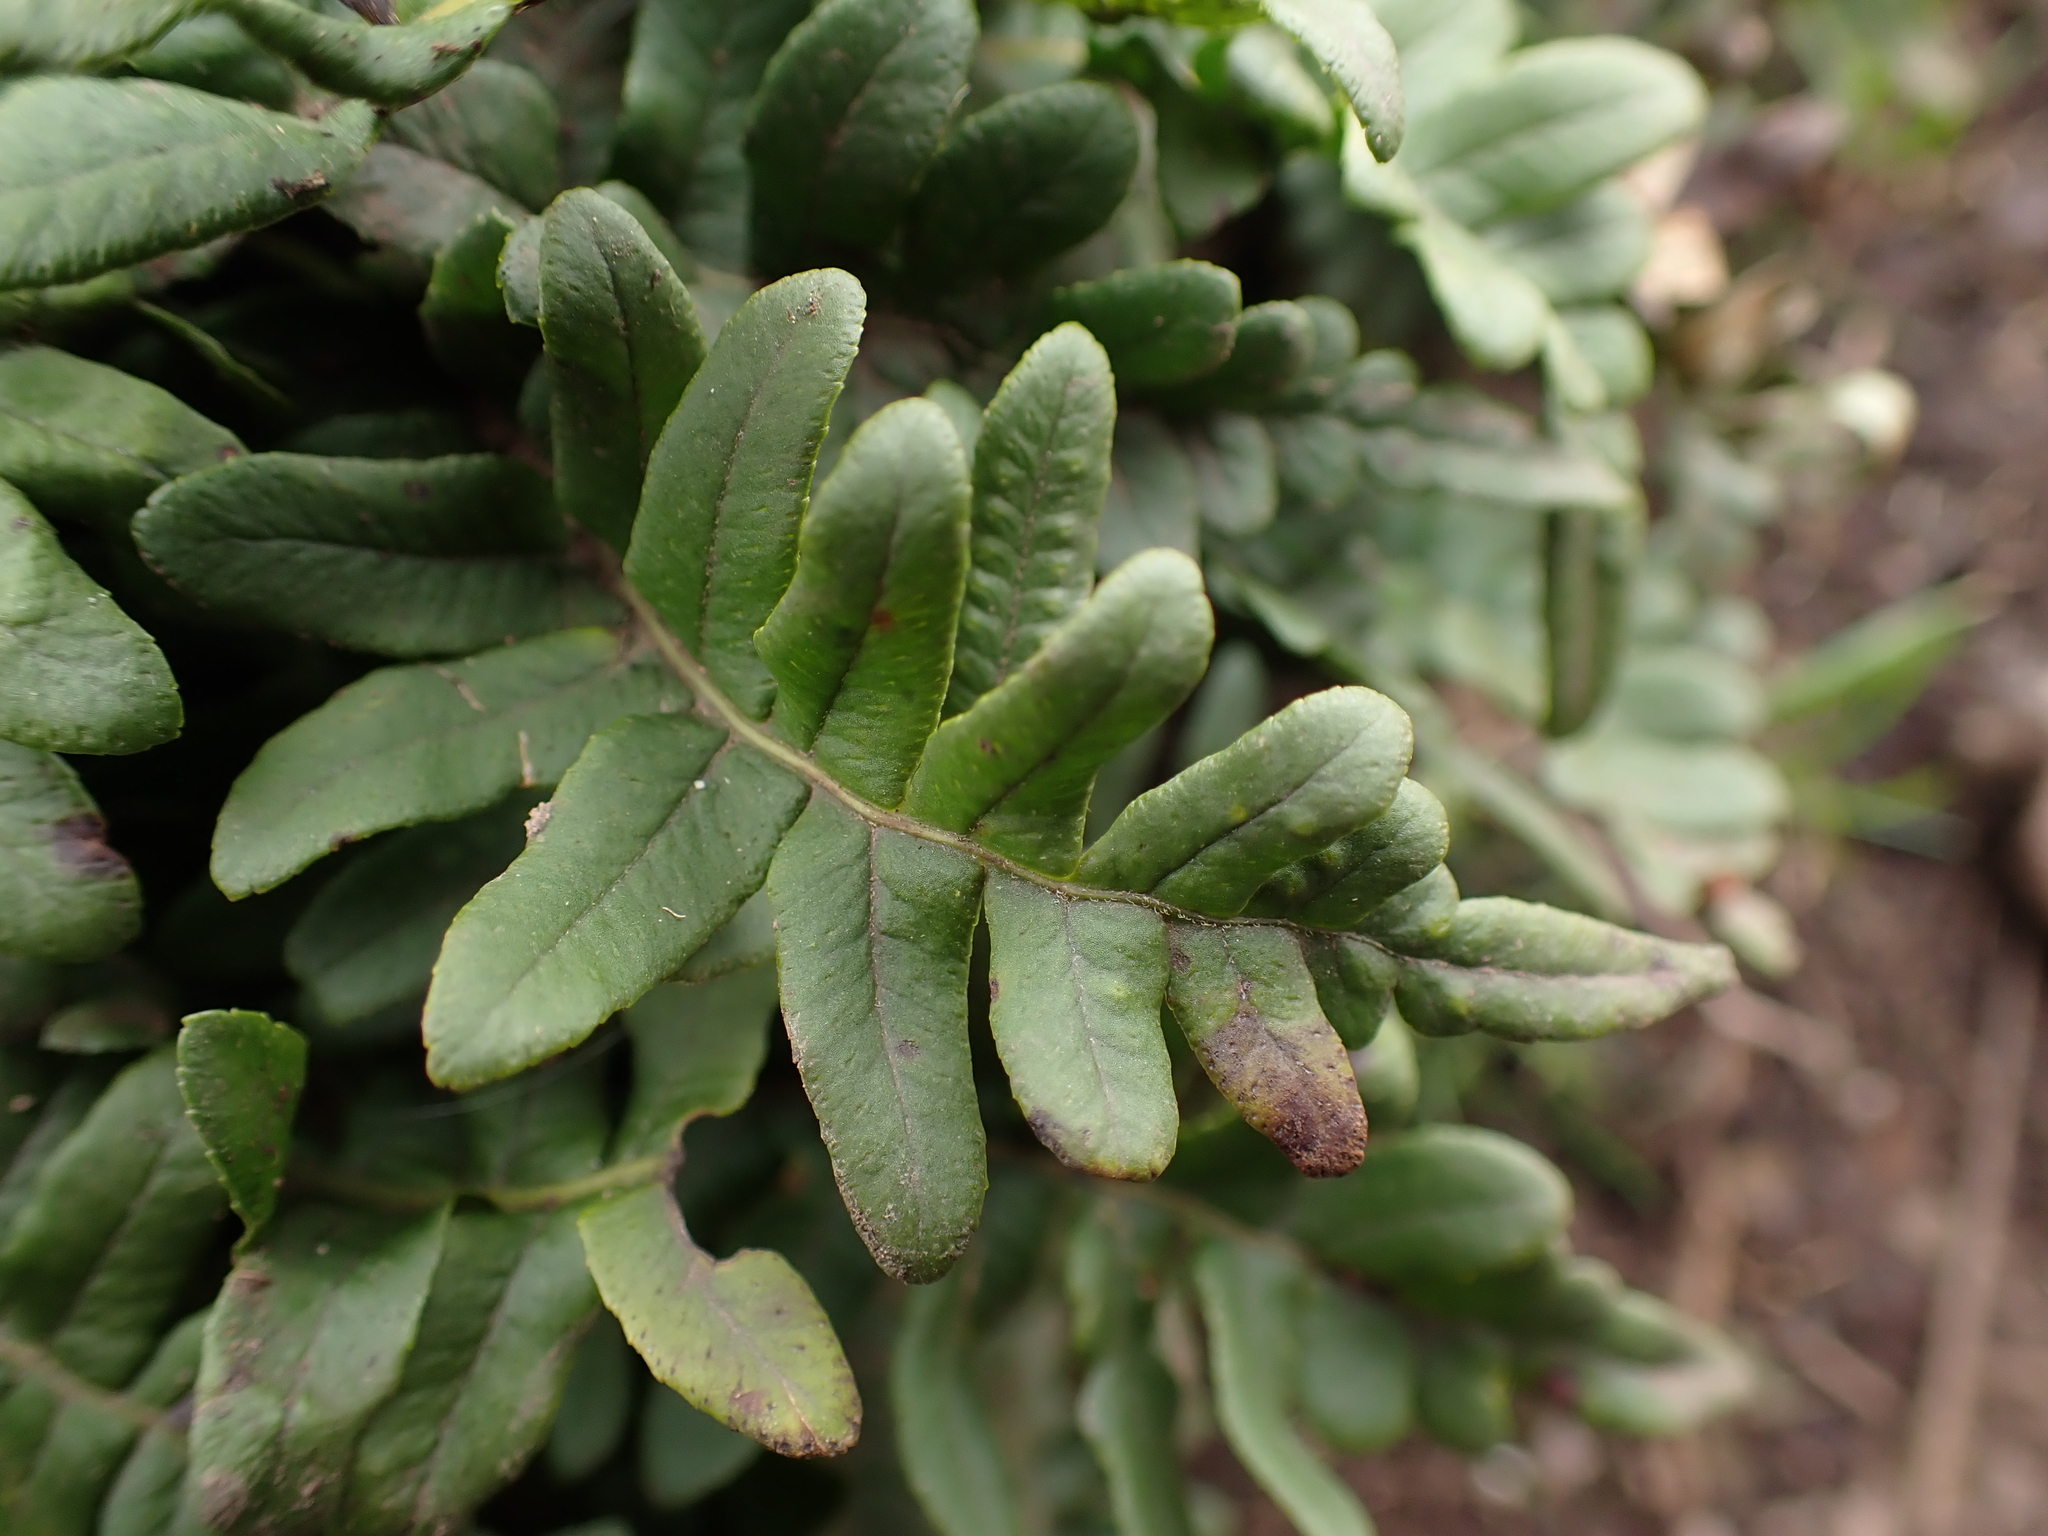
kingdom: Plantae
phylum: Tracheophyta
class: Polypodiopsida
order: Polypodiales
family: Polypodiaceae
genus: Polypodium
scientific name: Polypodium glycyrrhiza
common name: Licorice fern
